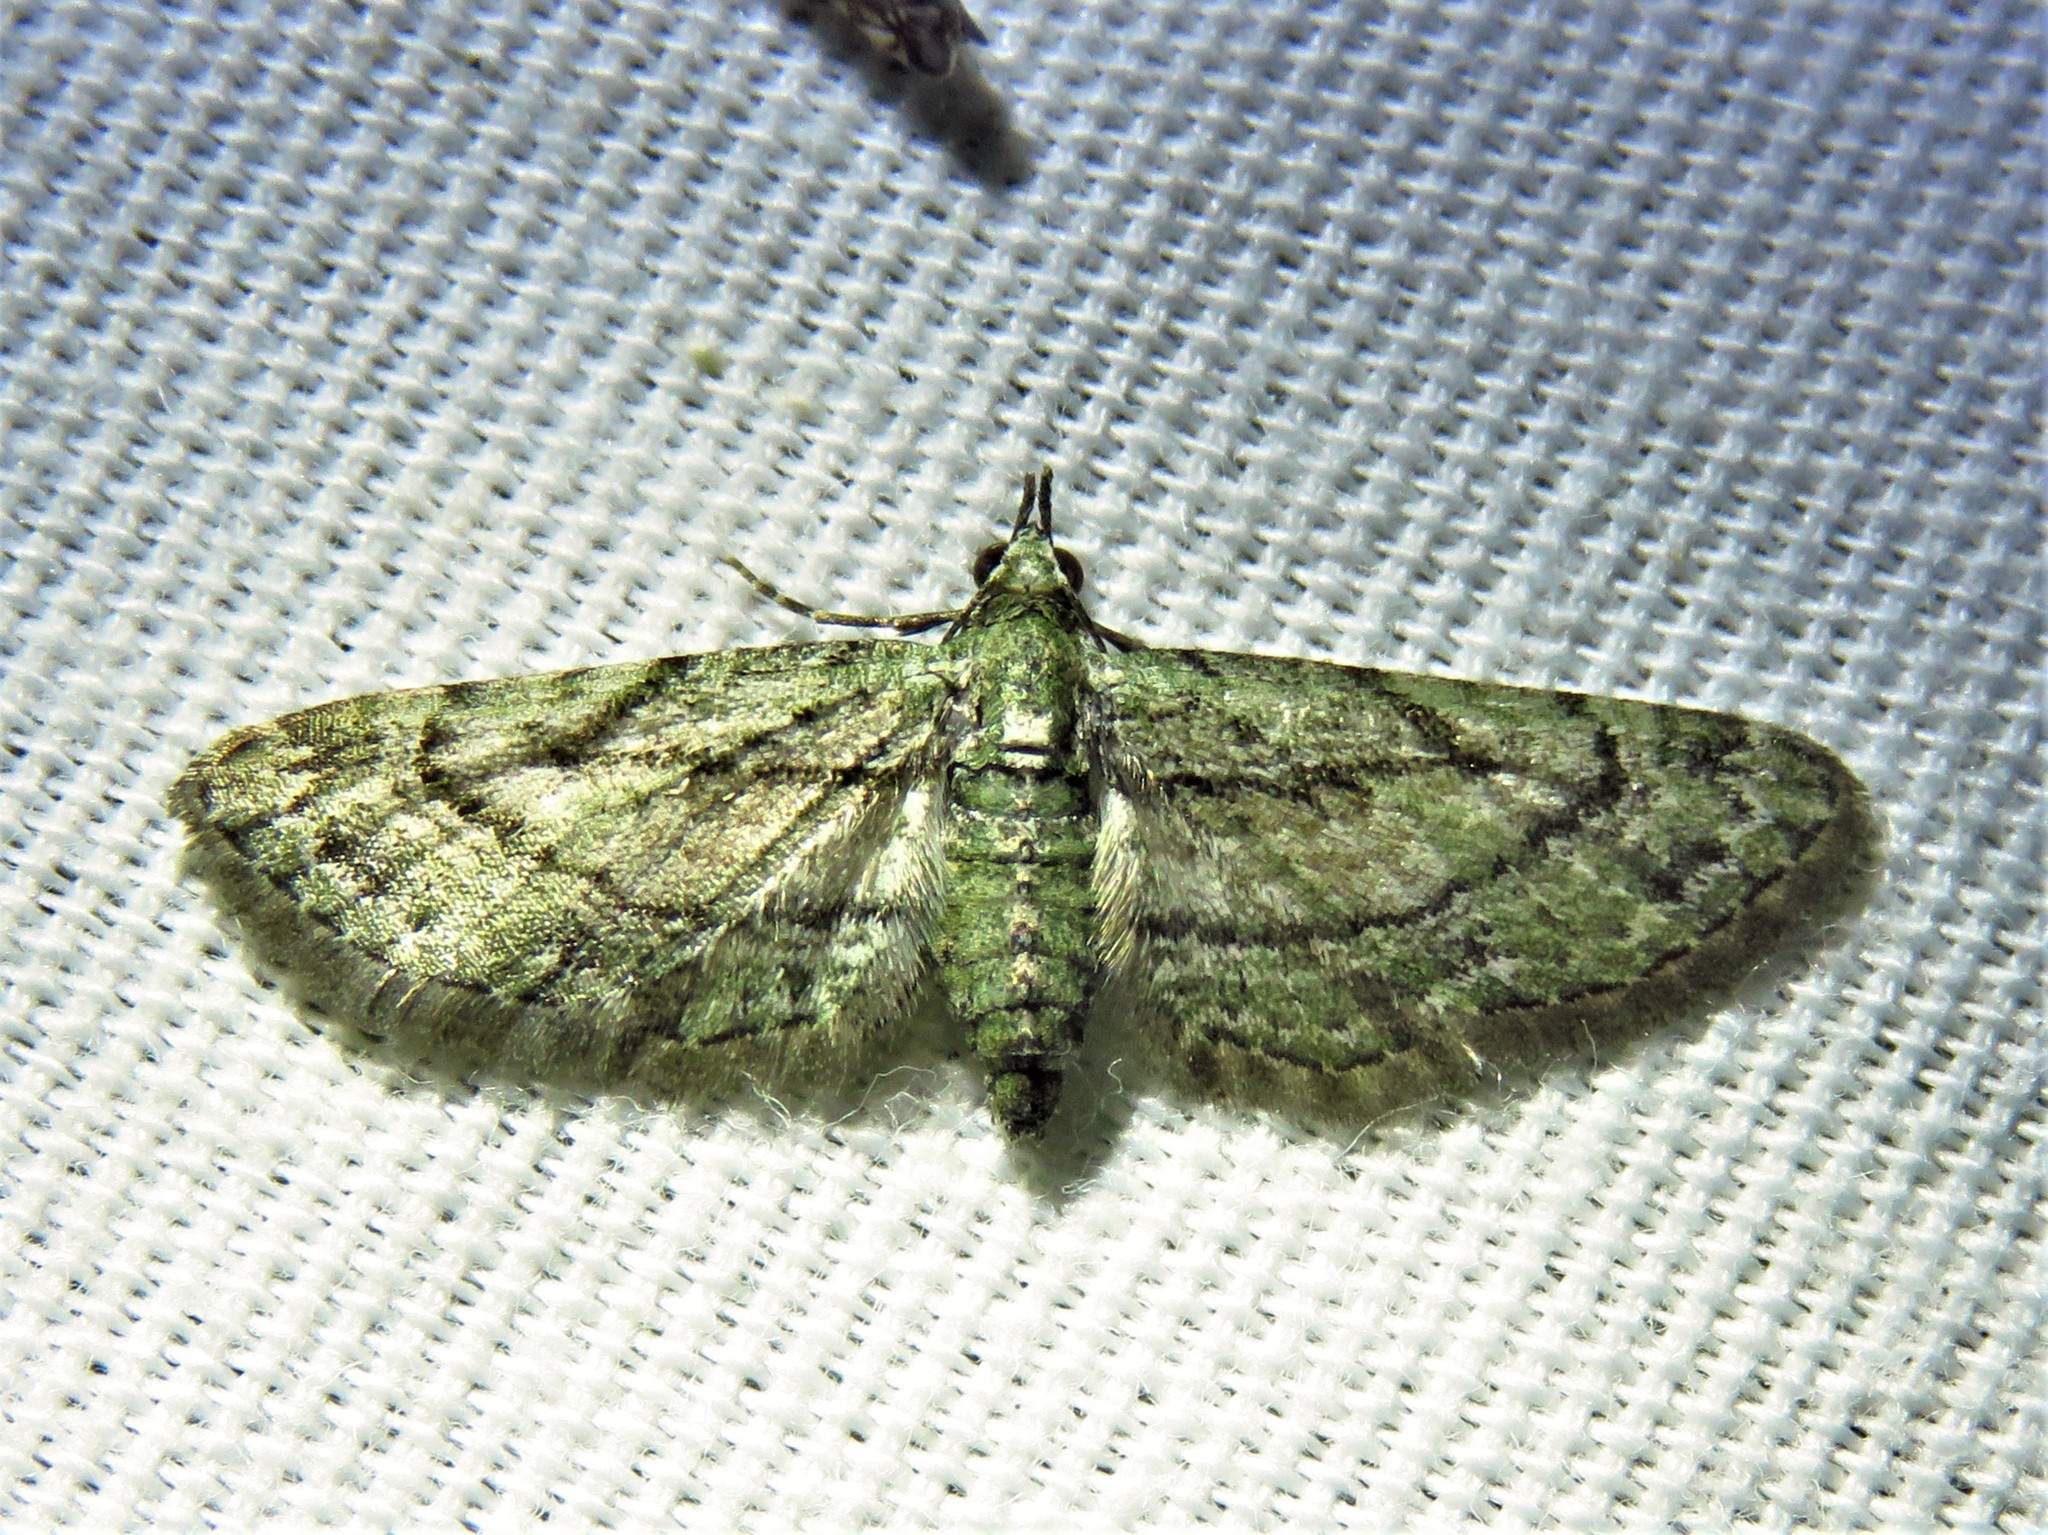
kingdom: Animalia
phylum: Arthropoda
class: Insecta
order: Lepidoptera
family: Geometridae
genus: Eupithecia
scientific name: Eupithecia longidens
